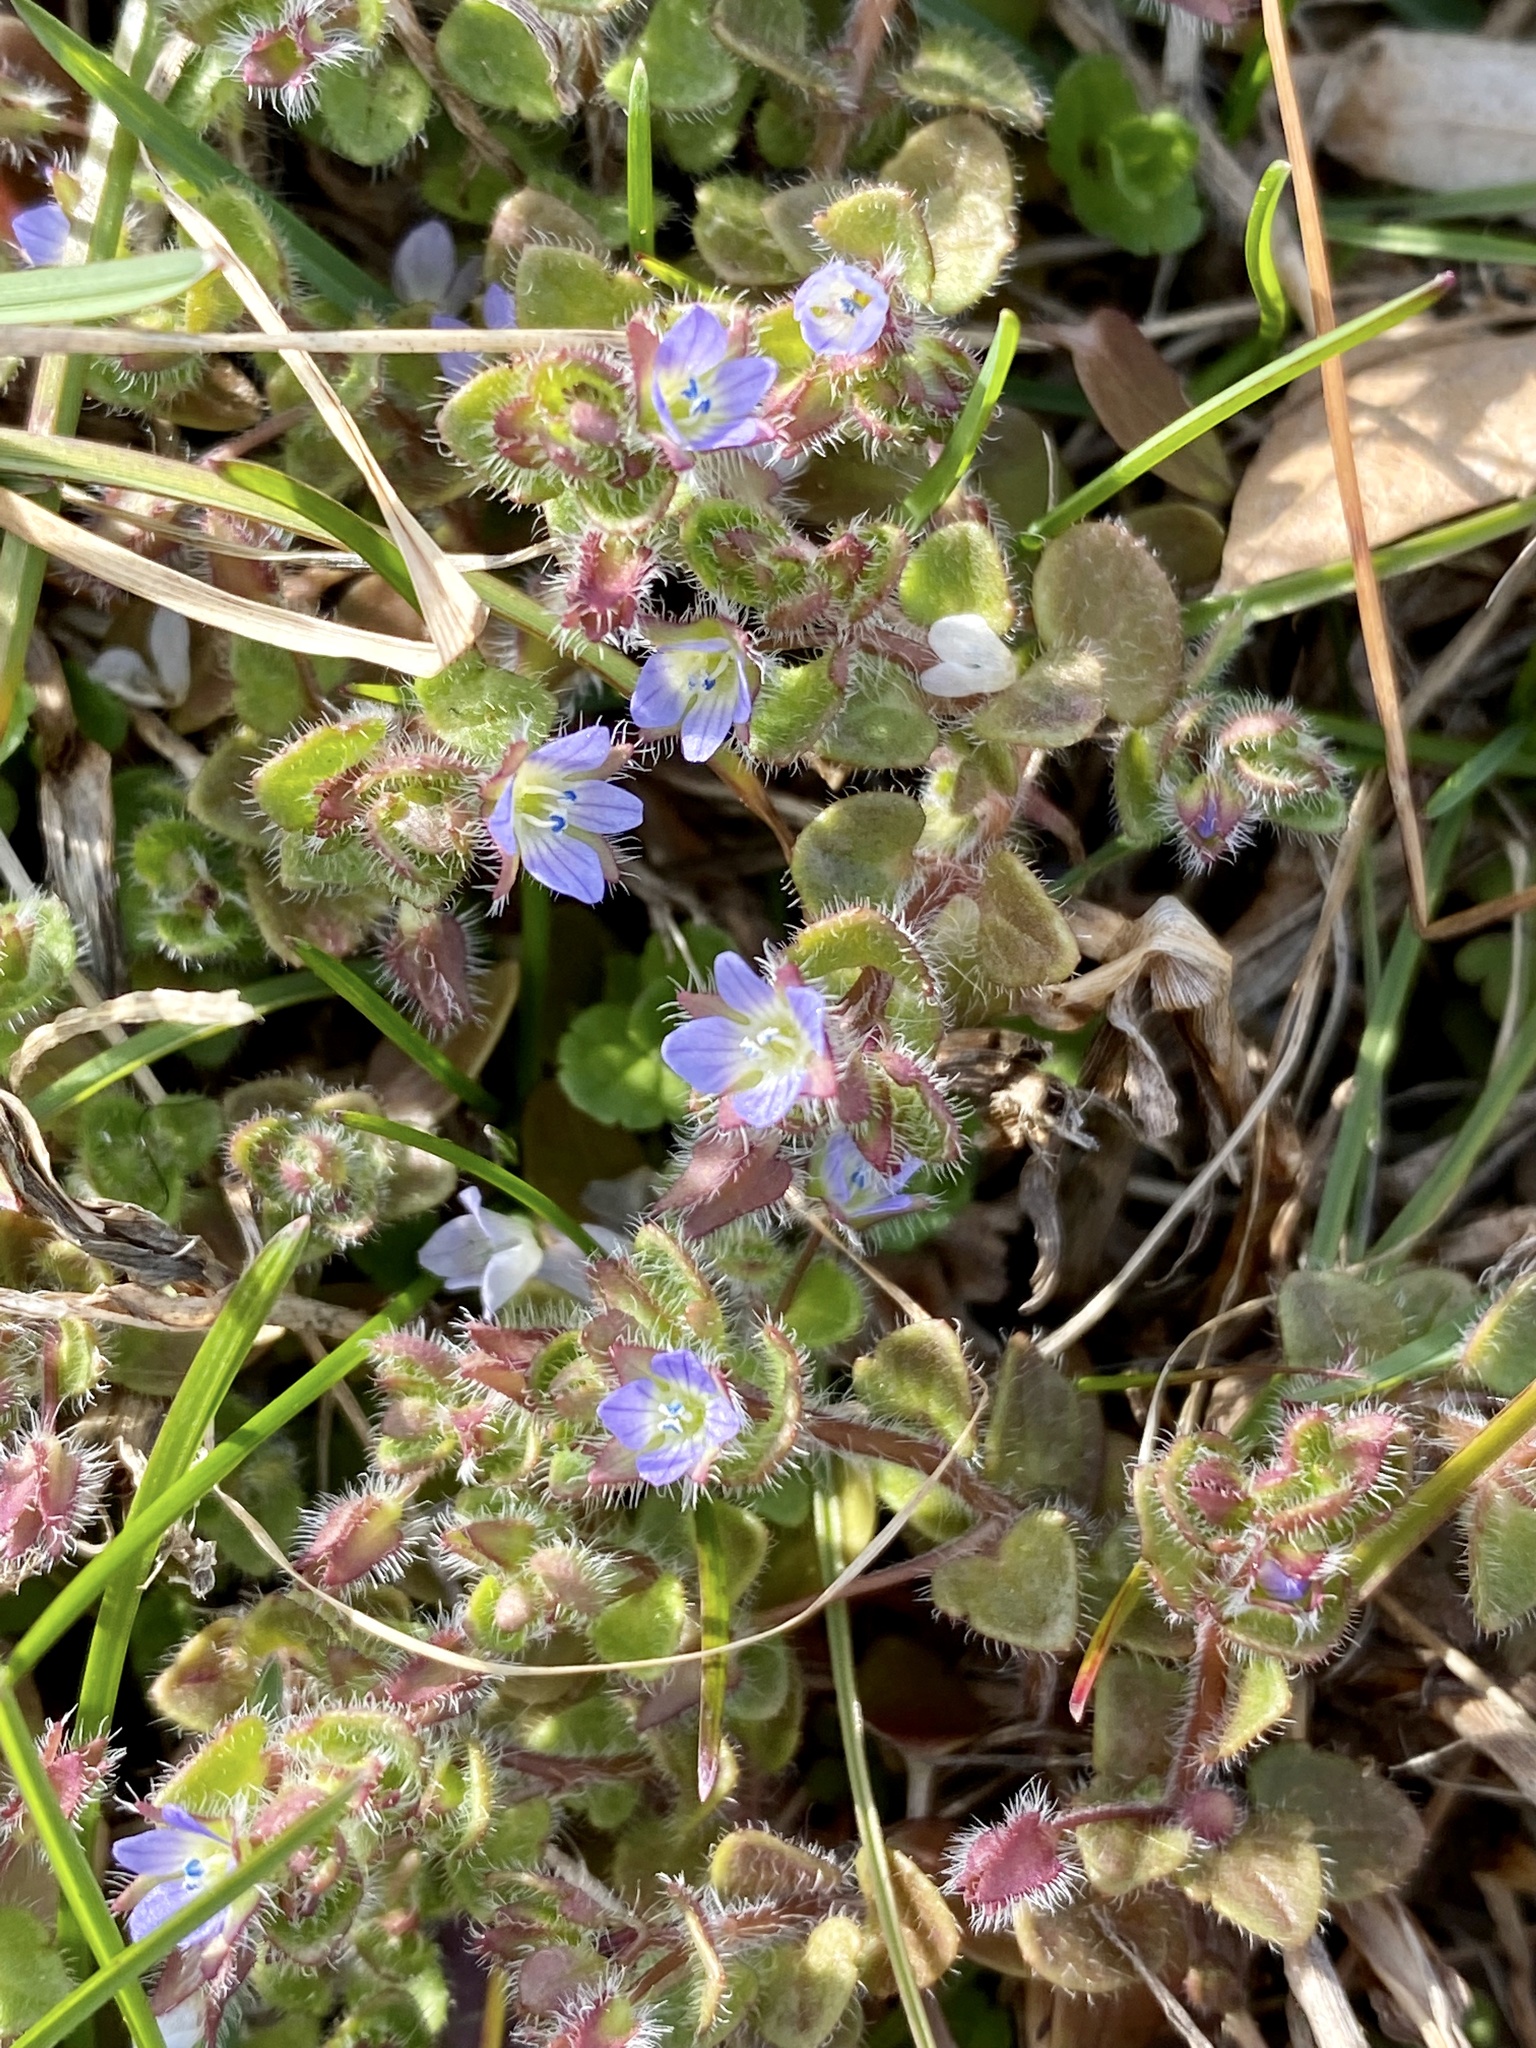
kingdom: Plantae
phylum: Tracheophyta
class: Magnoliopsida
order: Lamiales
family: Plantaginaceae
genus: Veronica
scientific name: Veronica hederifolia
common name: Ivy-leaved speedwell
